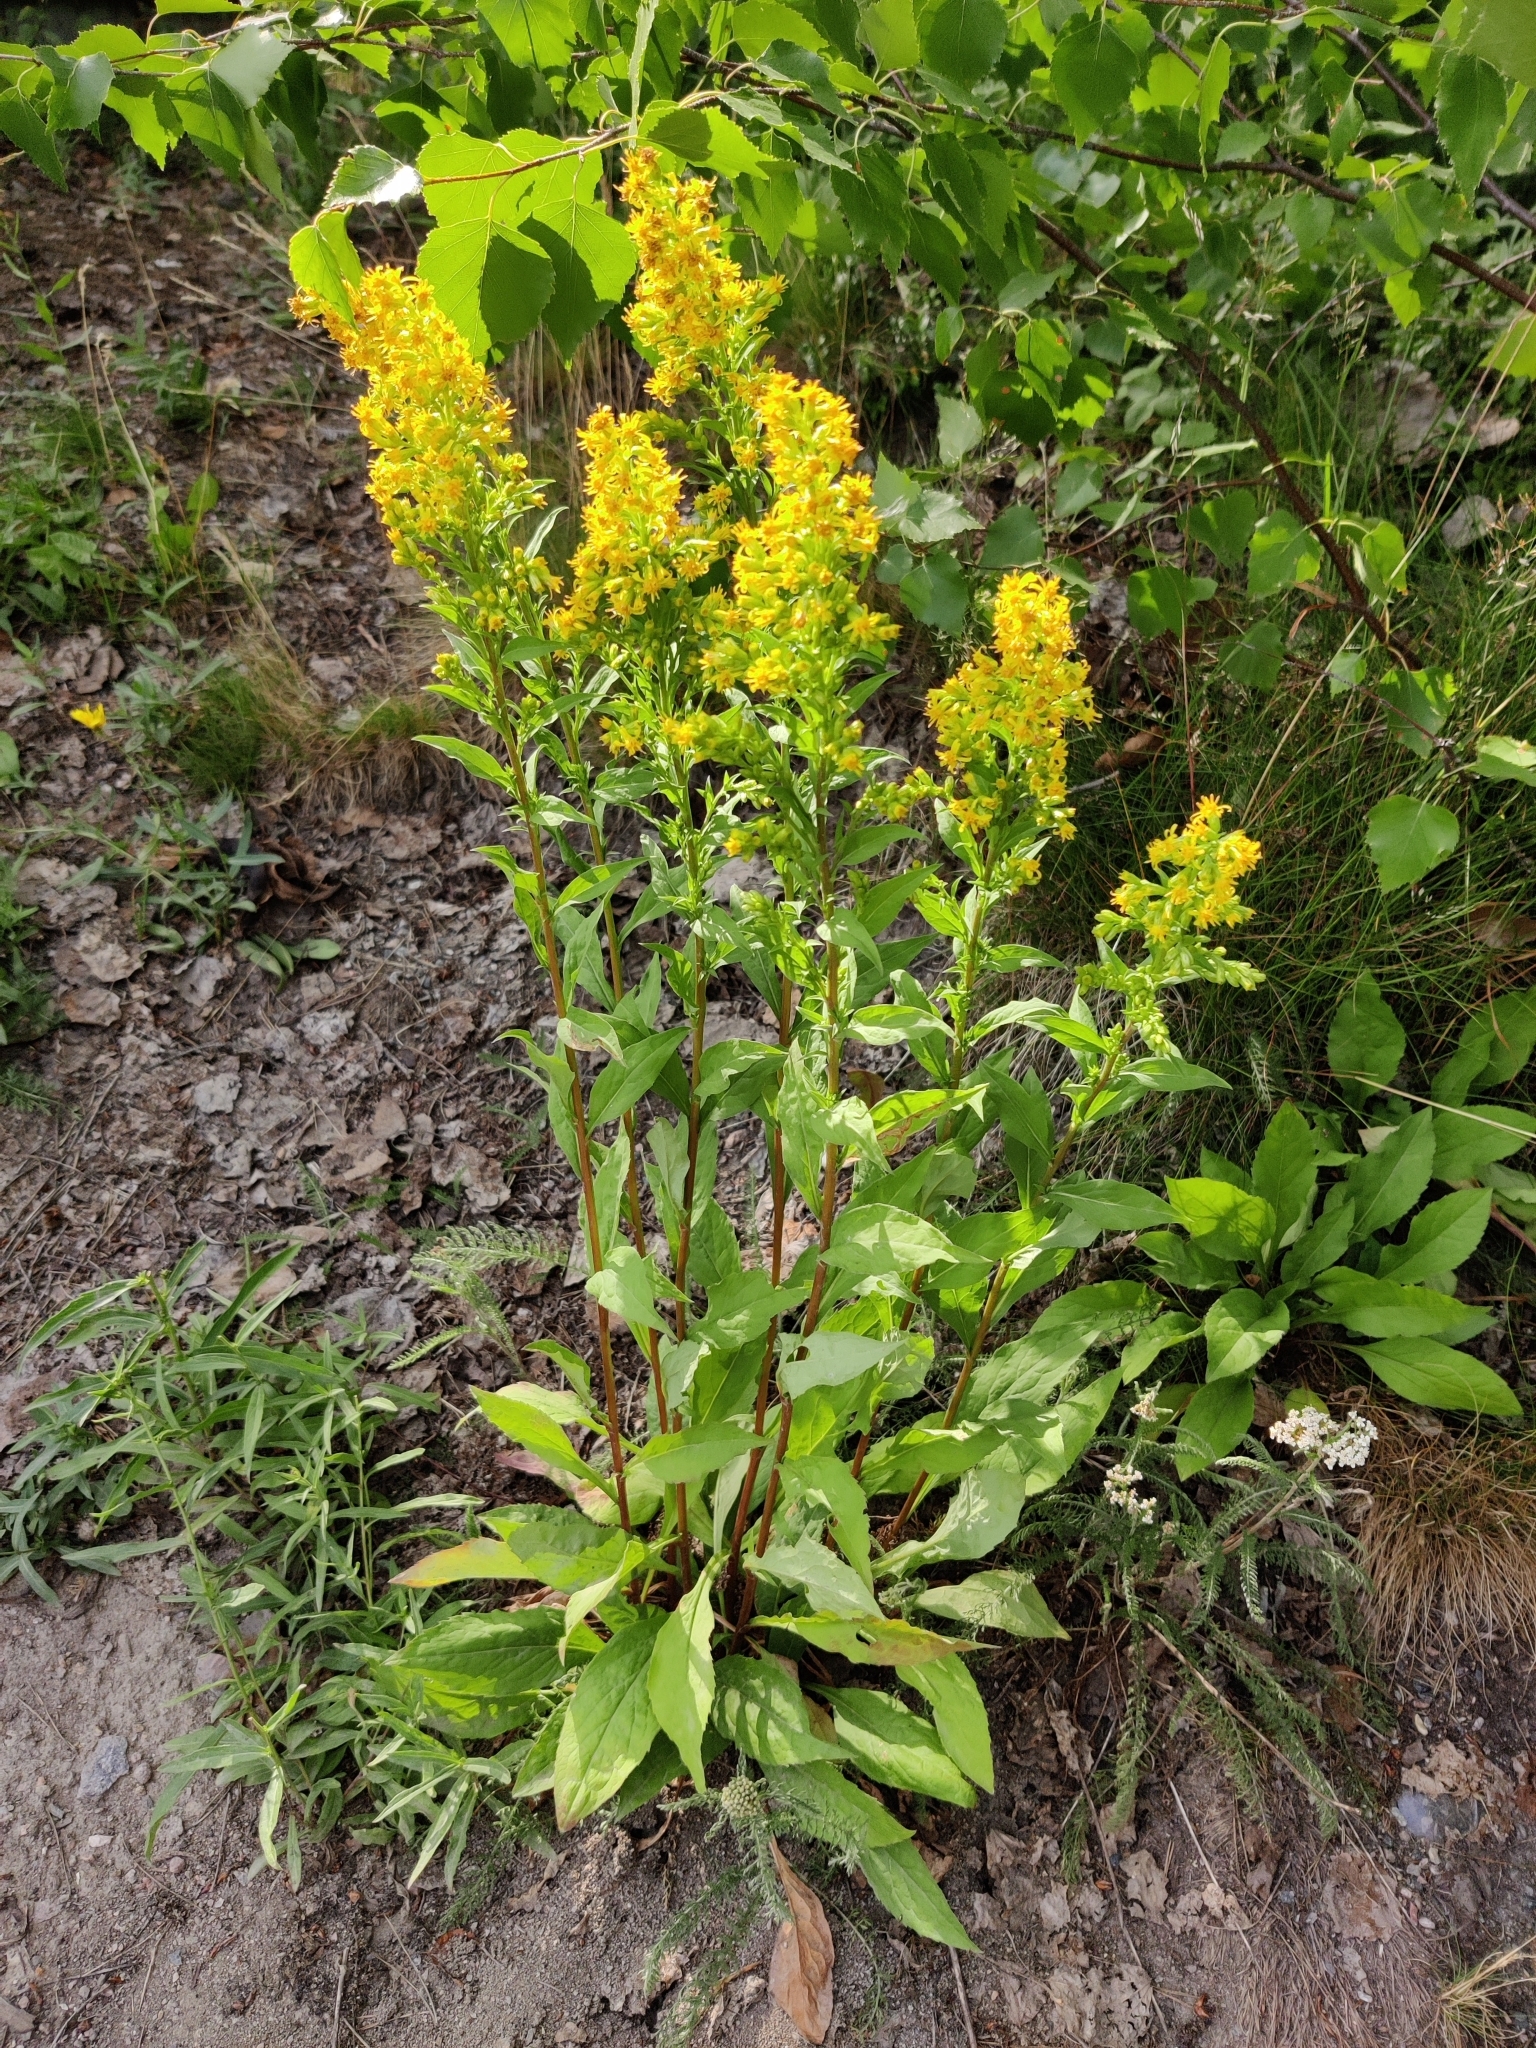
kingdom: Plantae
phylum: Tracheophyta
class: Magnoliopsida
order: Asterales
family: Asteraceae
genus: Solidago
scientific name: Solidago virgaurea
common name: Goldenrod
